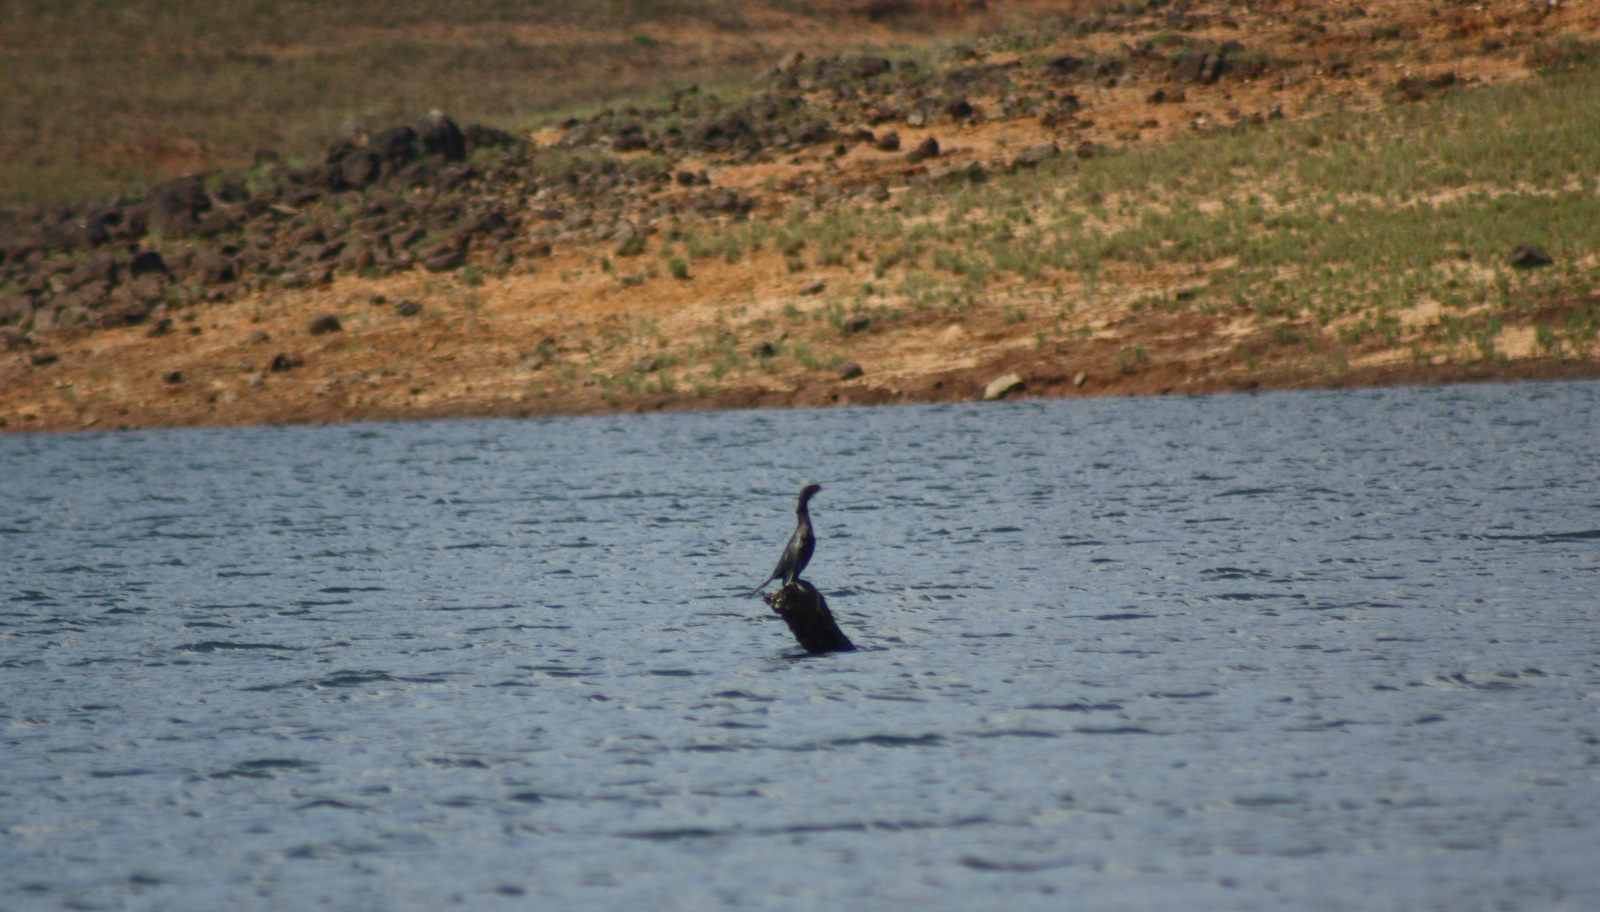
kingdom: Animalia
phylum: Chordata
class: Aves
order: Suliformes
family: Phalacrocoracidae
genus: Microcarbo
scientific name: Microcarbo niger
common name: Little cormorant
